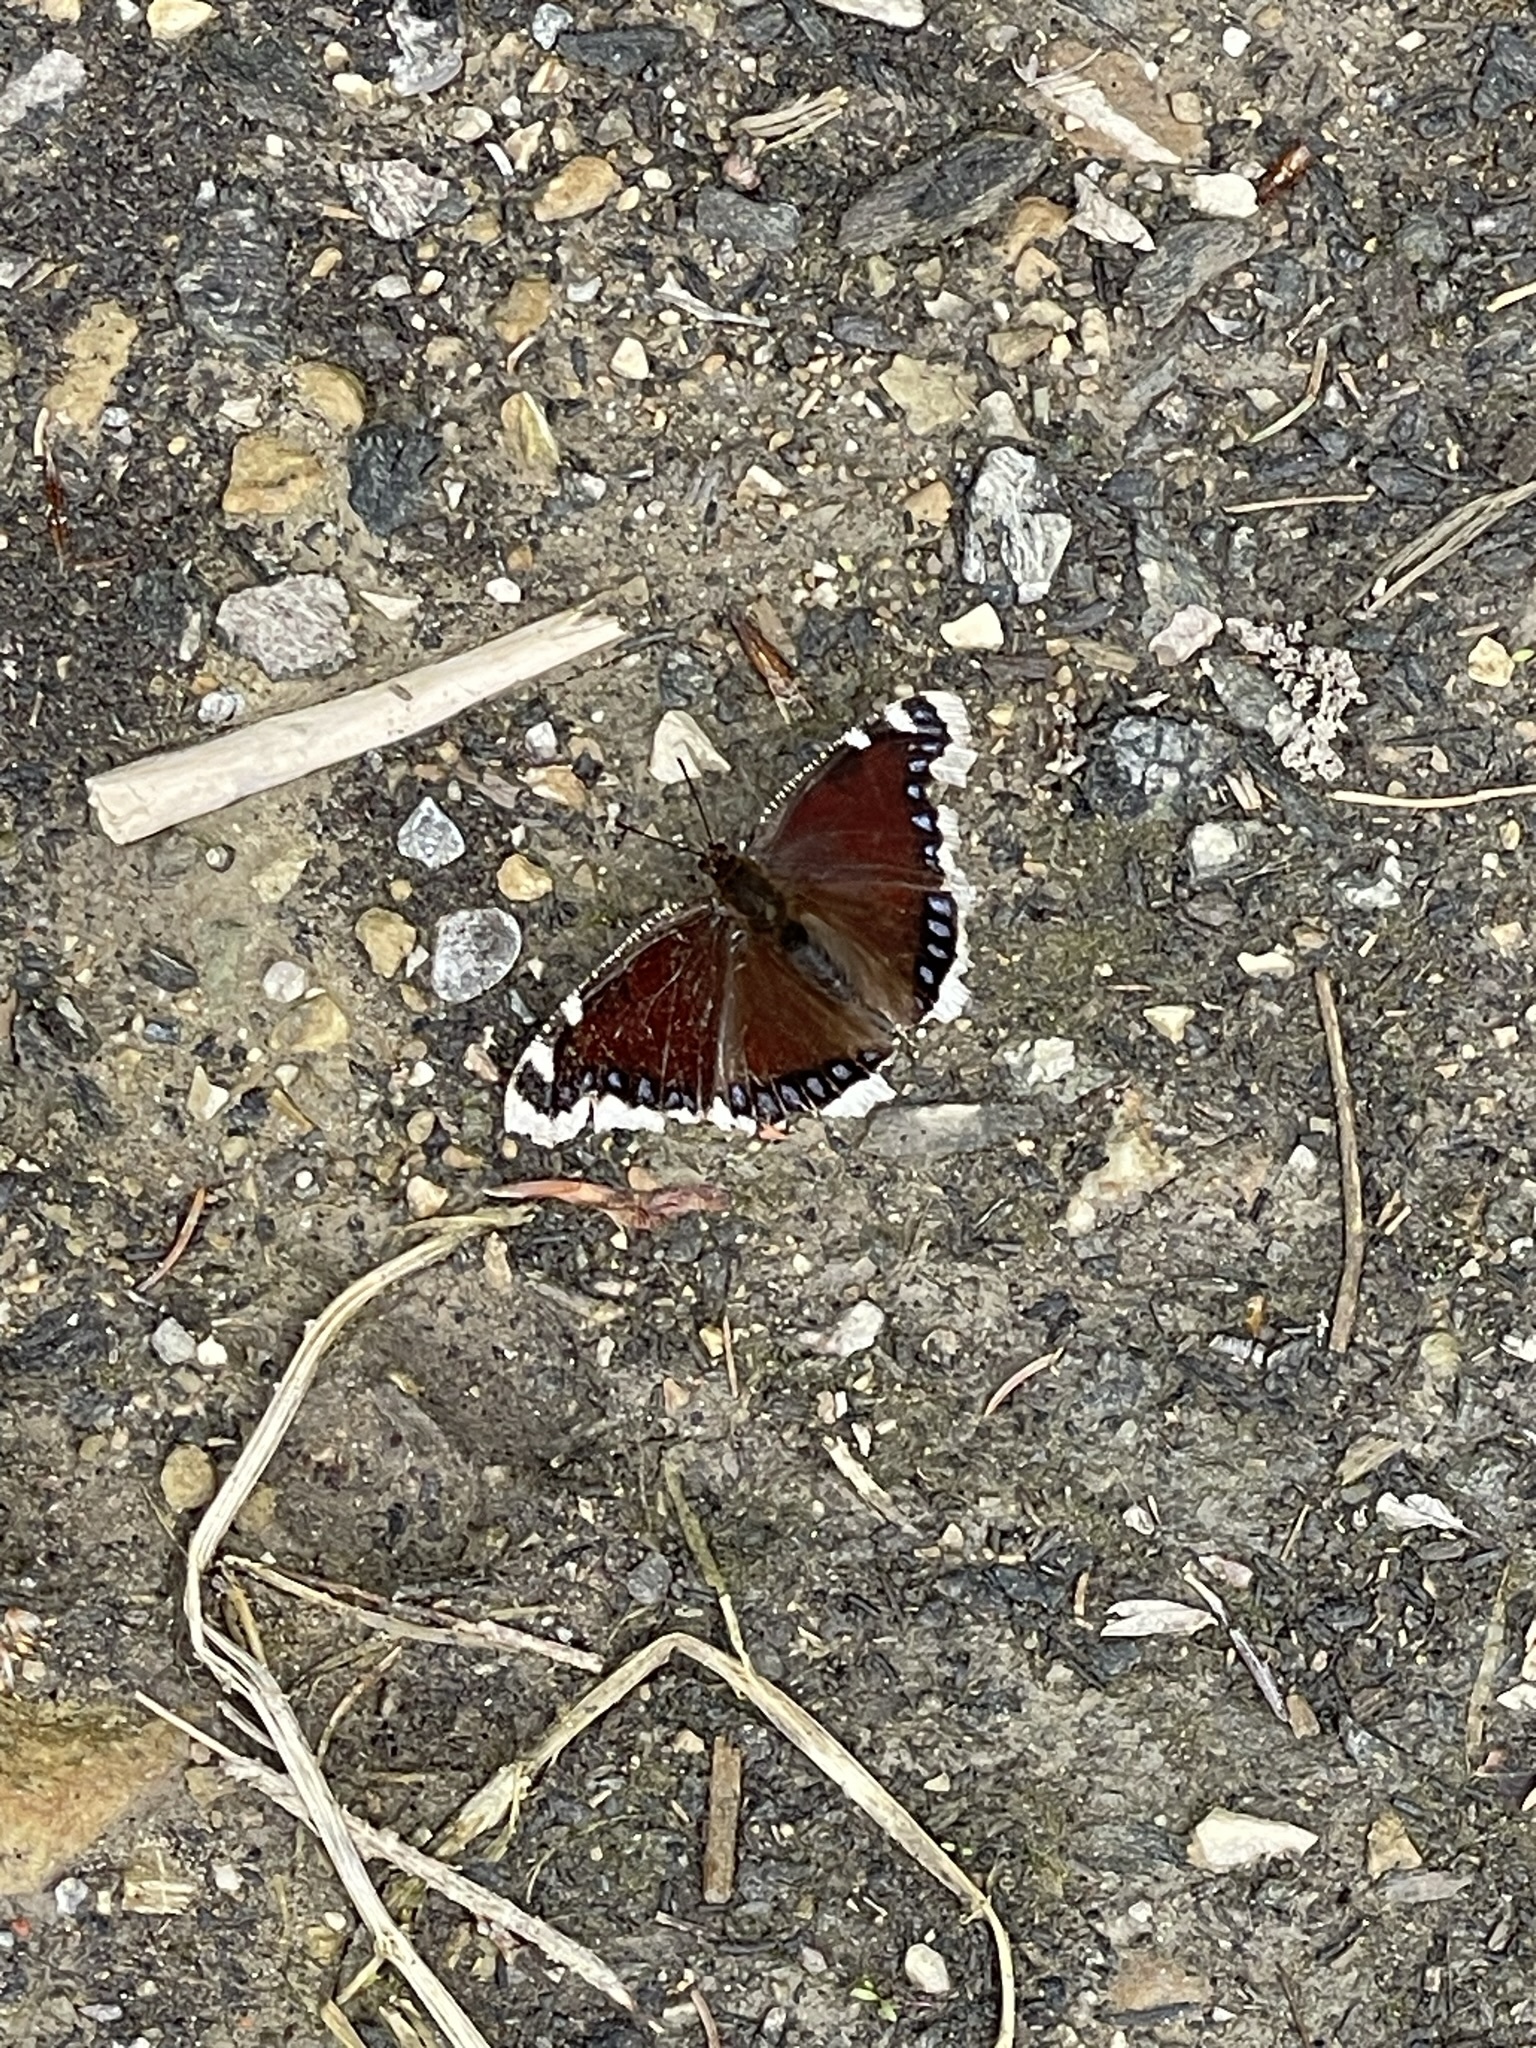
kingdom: Animalia
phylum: Arthropoda
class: Insecta
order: Lepidoptera
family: Nymphalidae
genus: Nymphalis
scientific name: Nymphalis antiopa
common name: Camberwell beauty
